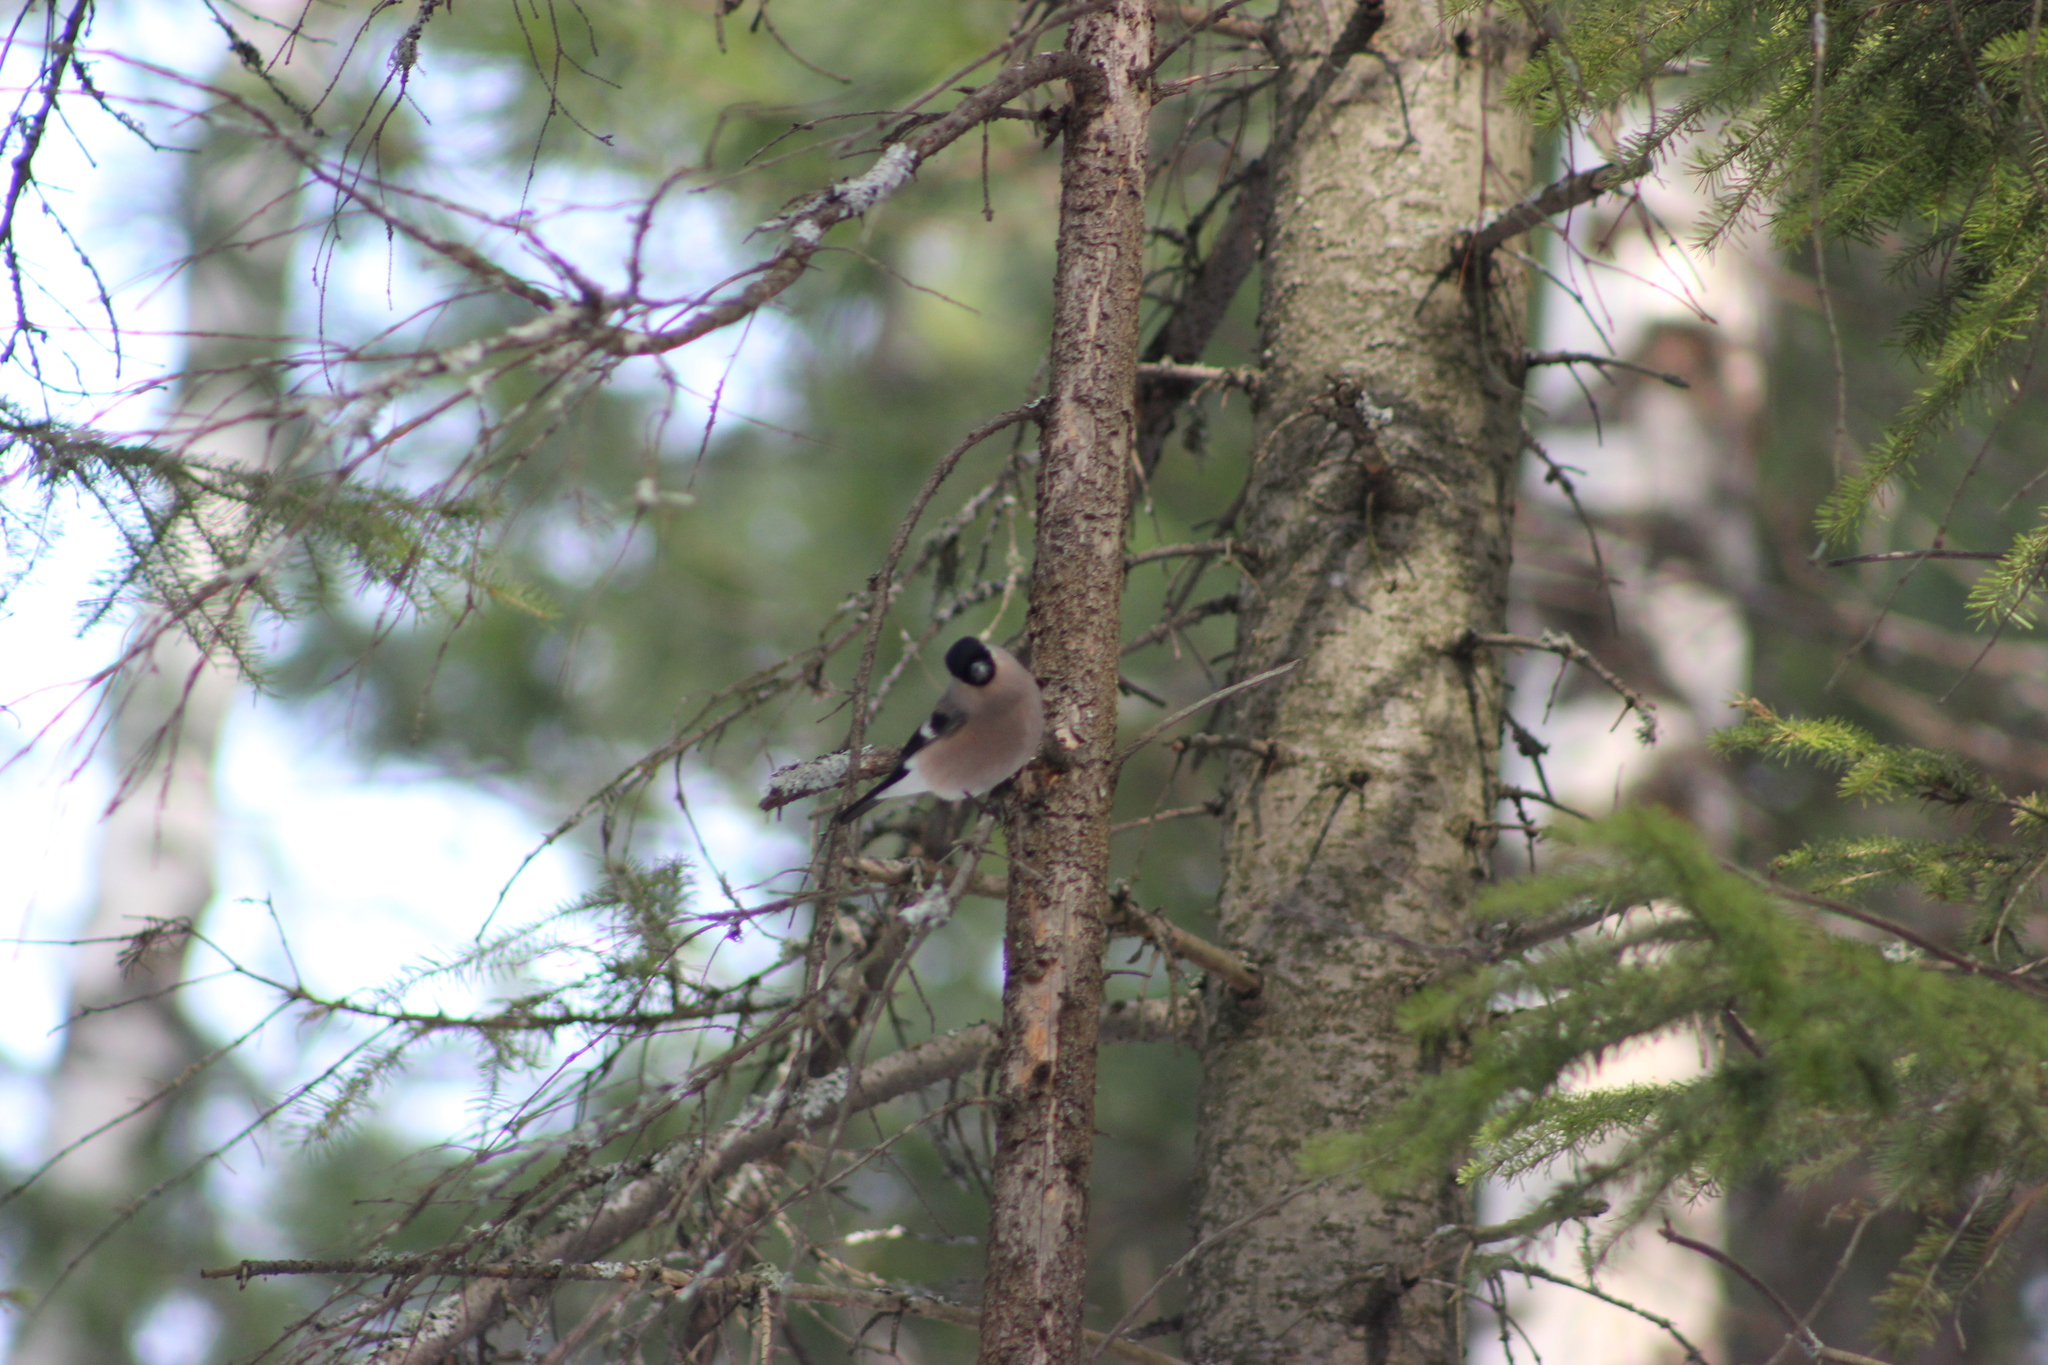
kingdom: Animalia
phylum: Chordata
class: Aves
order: Passeriformes
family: Fringillidae
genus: Pyrrhula
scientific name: Pyrrhula pyrrhula
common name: Eurasian bullfinch
